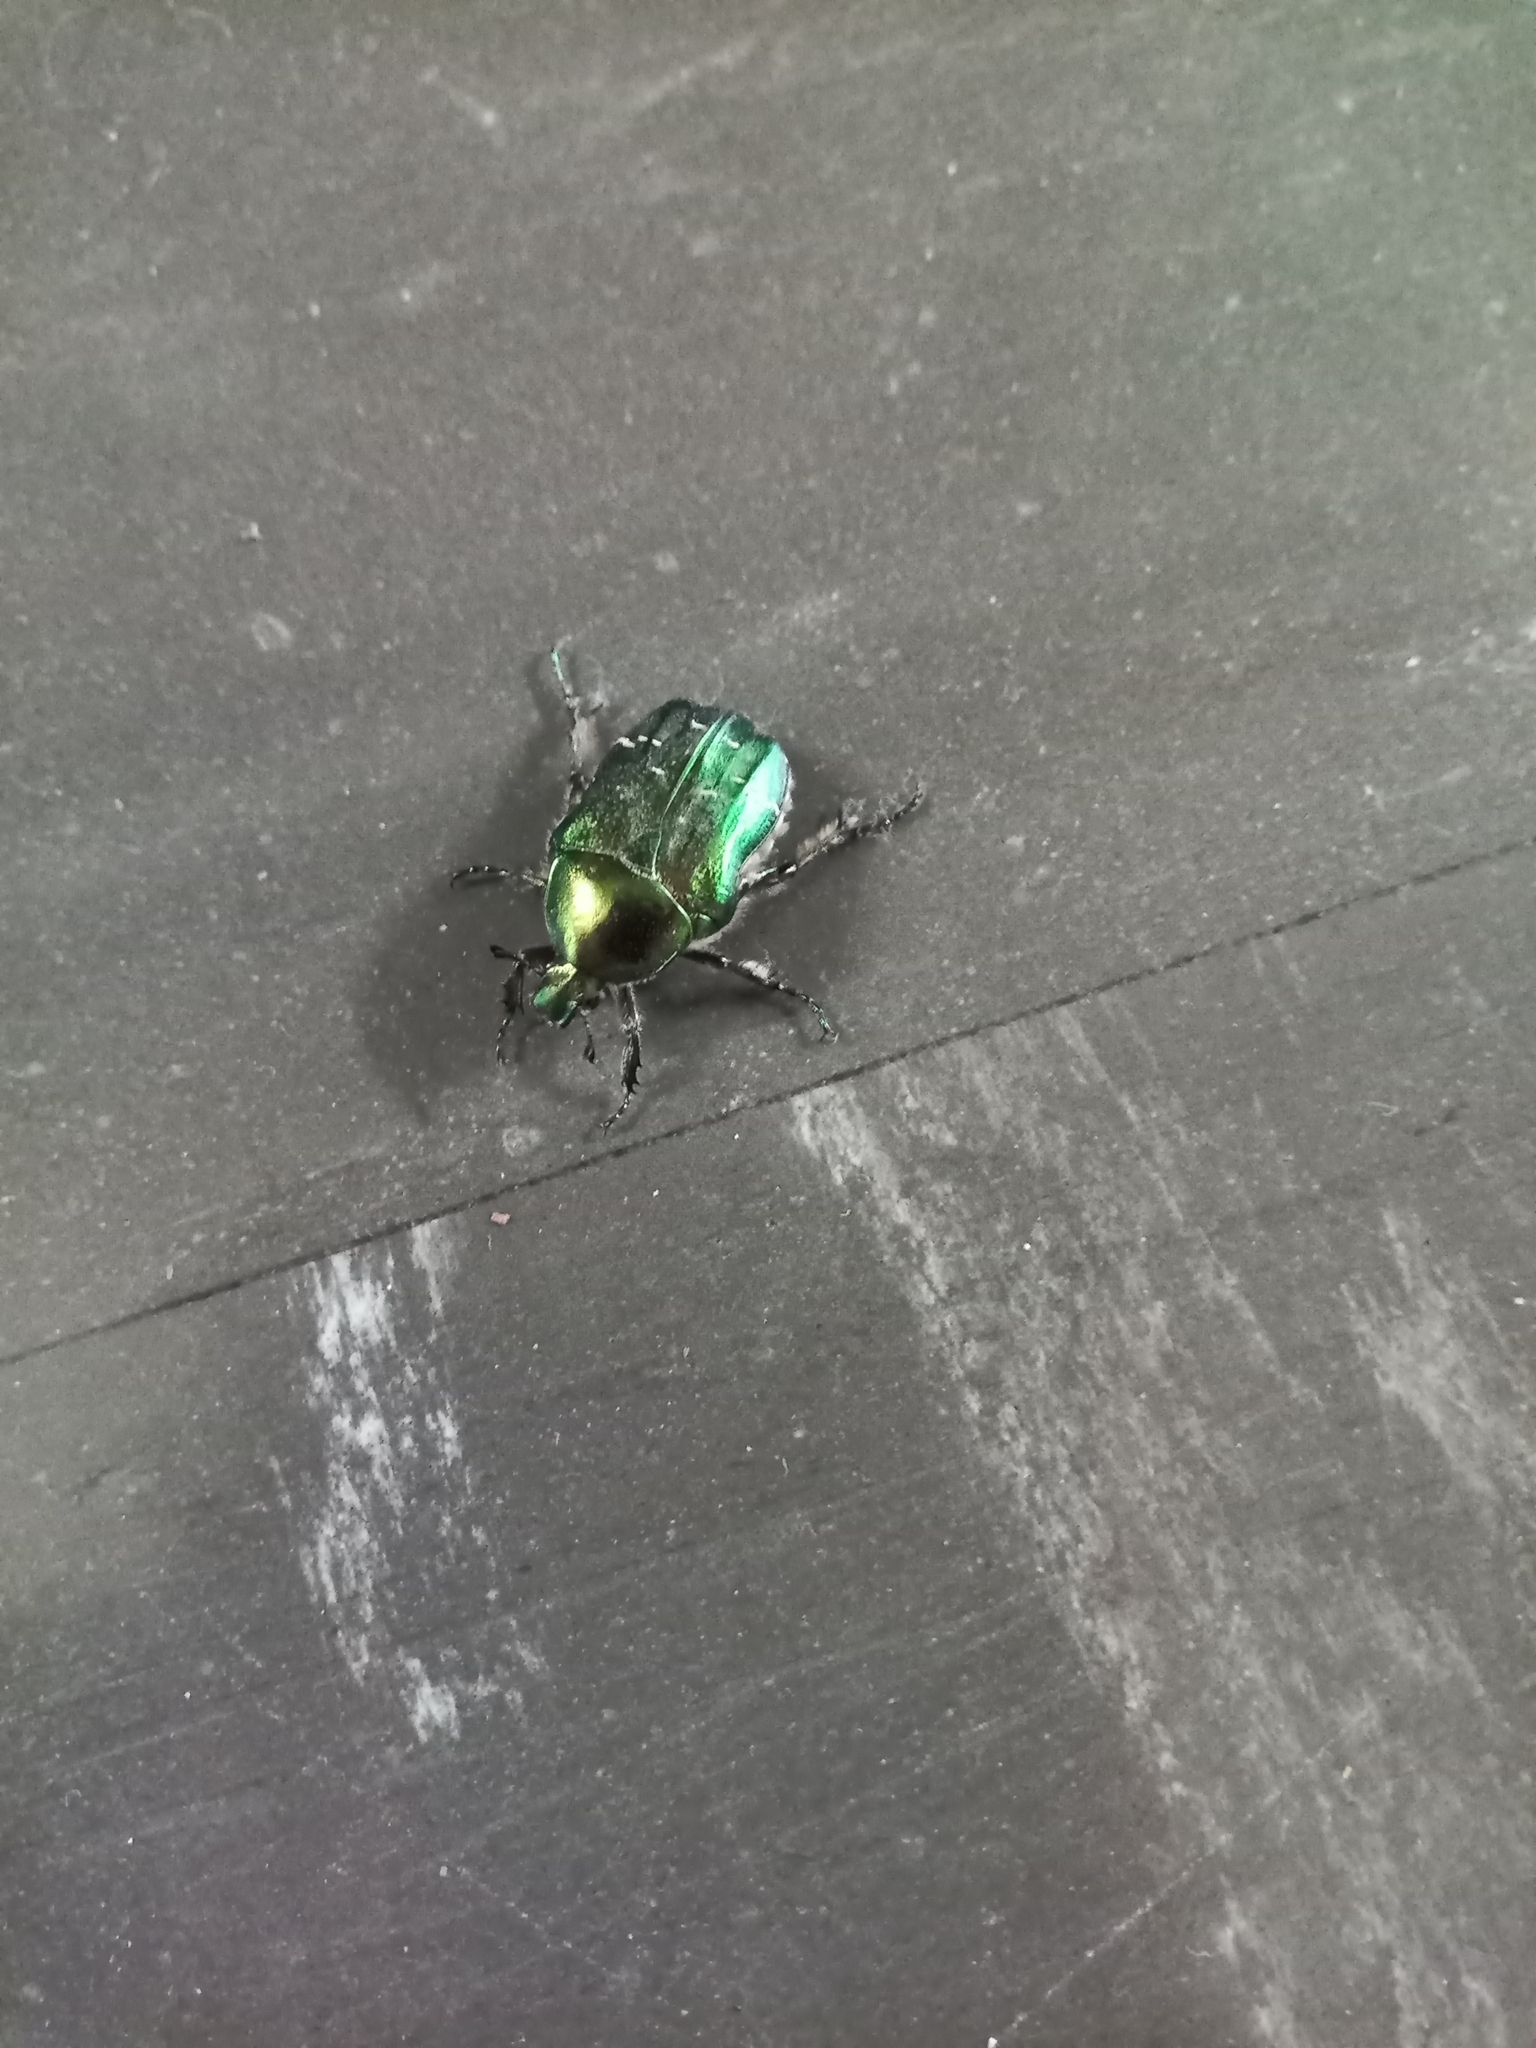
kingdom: Animalia
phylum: Arthropoda
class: Insecta
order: Coleoptera
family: Scarabaeidae
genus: Cetonia
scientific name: Cetonia aurata
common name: Rose chafer
